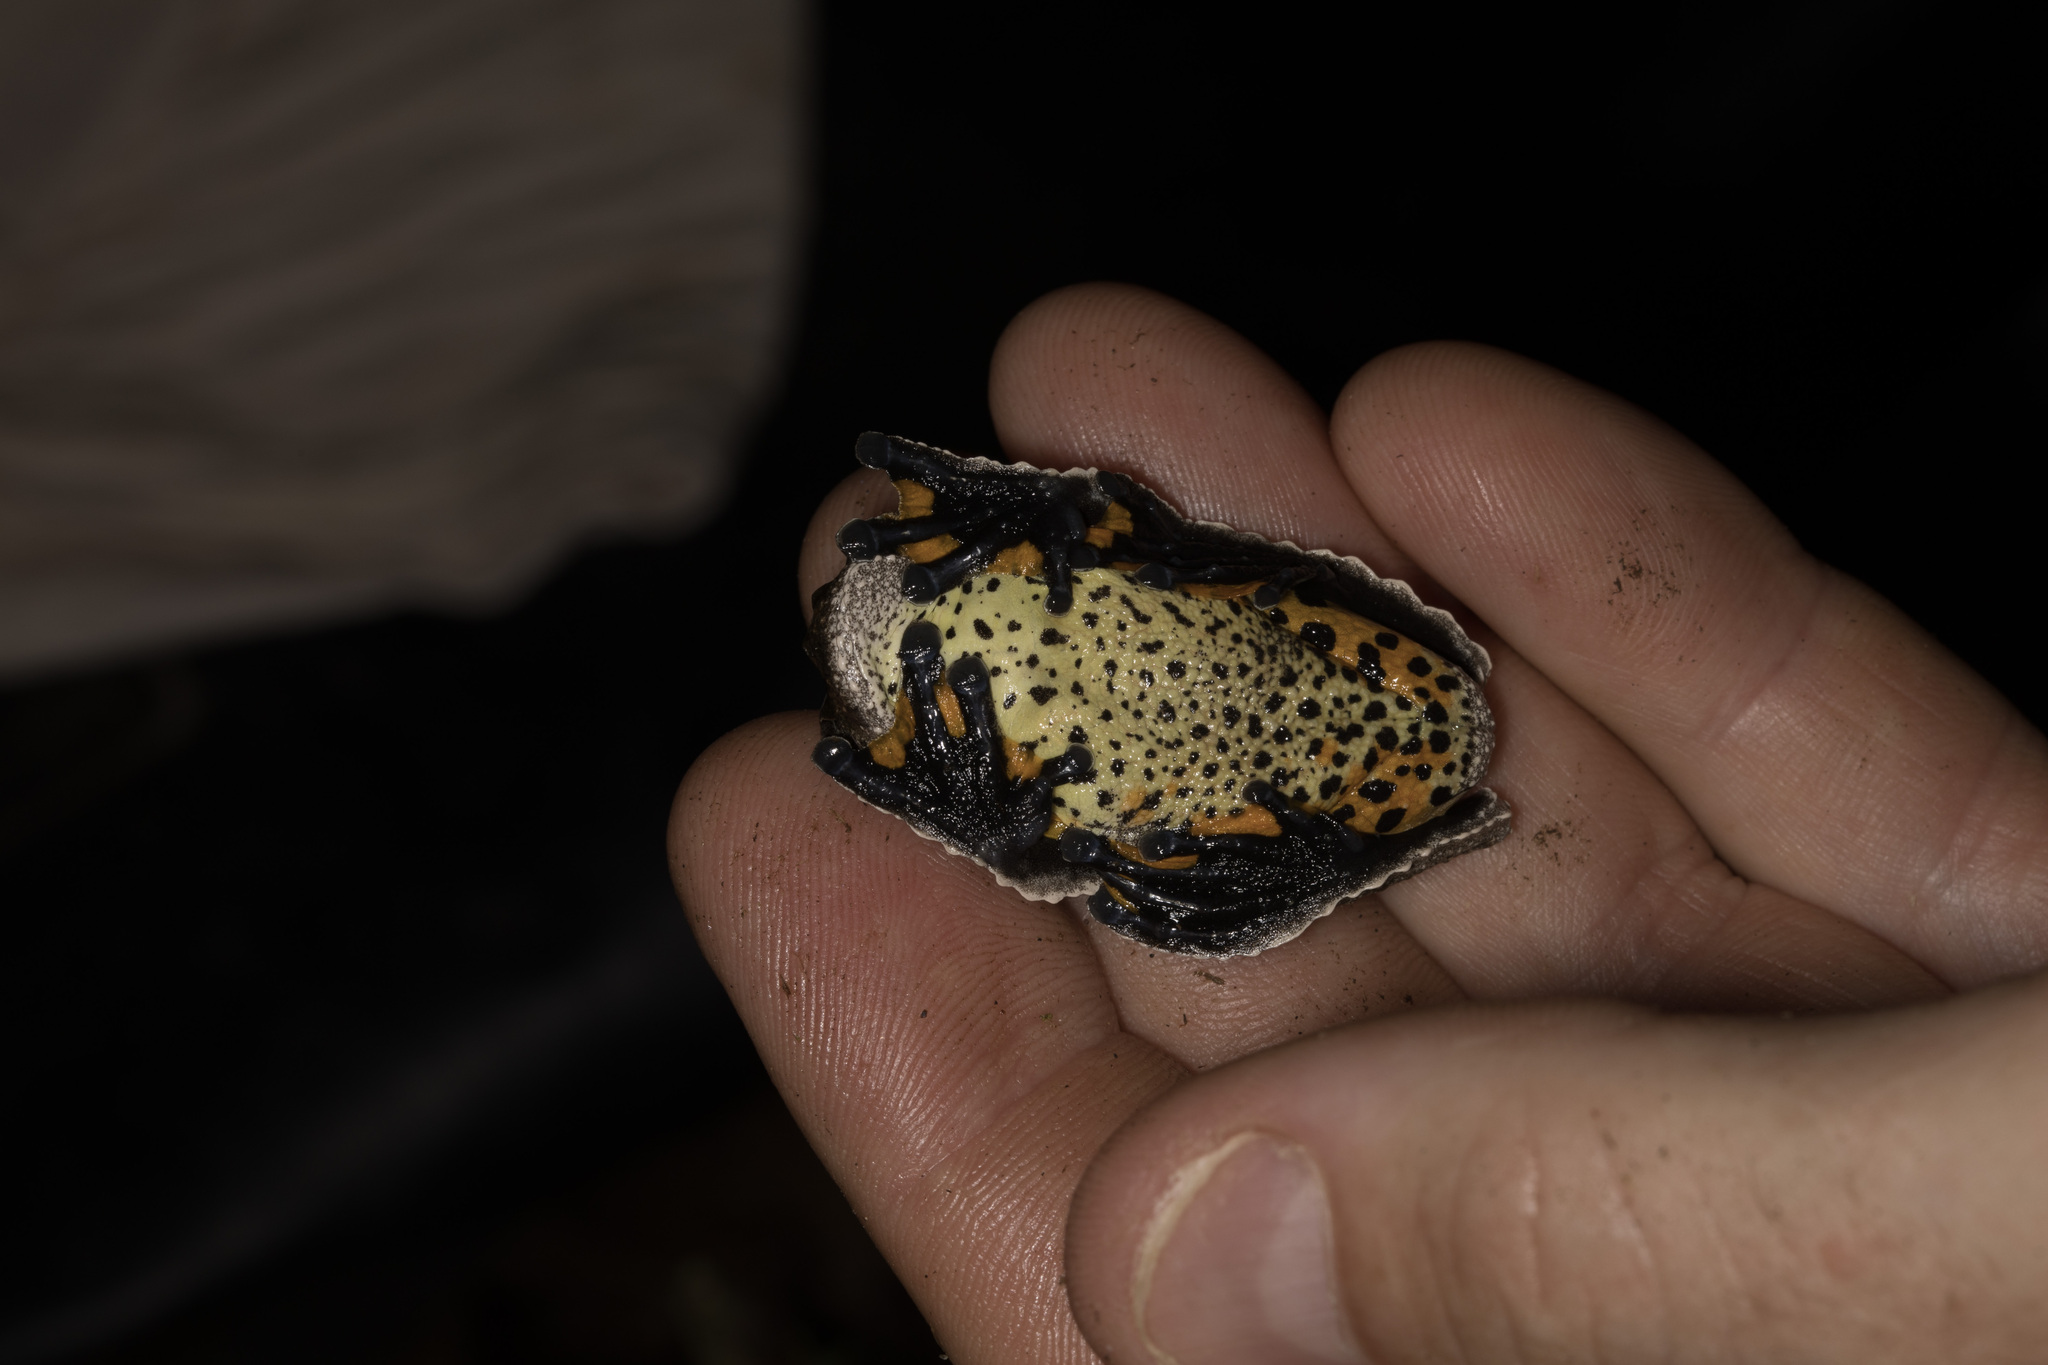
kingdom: Animalia
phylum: Chordata
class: Amphibia
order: Anura
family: Hylidae
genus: Dendropsophus
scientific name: Dendropsophus marmoratus
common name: Marbled treefrog
